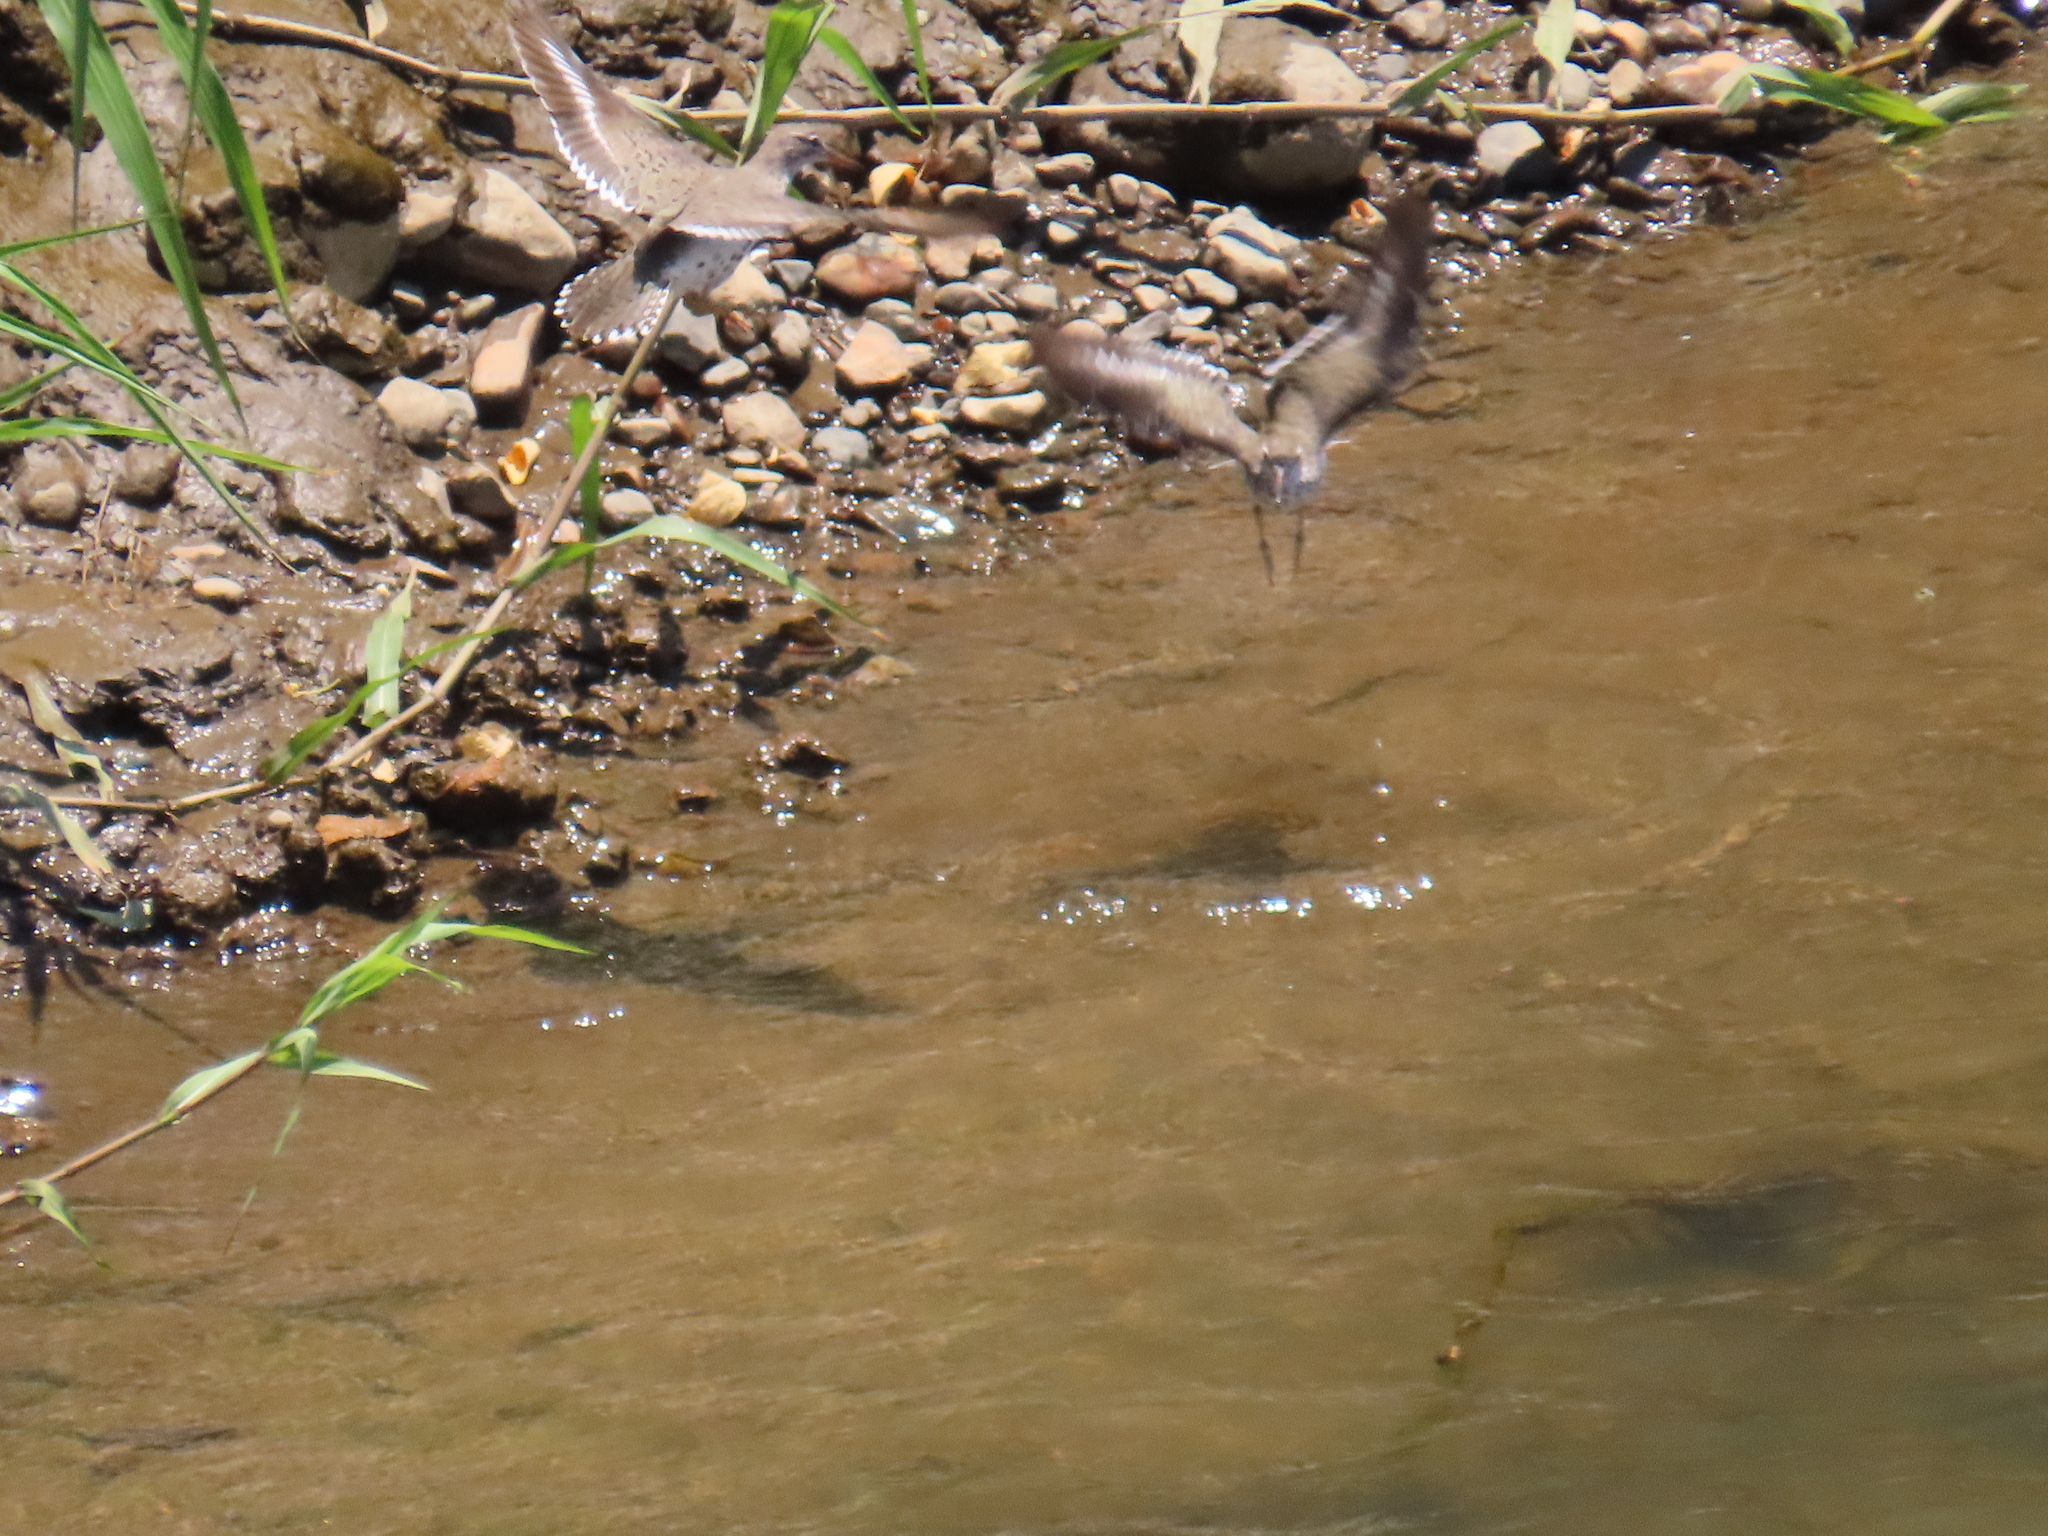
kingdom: Animalia
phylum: Chordata
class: Aves
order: Charadriiformes
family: Scolopacidae
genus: Actitis
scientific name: Actitis macularius
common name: Spotted sandpiper
